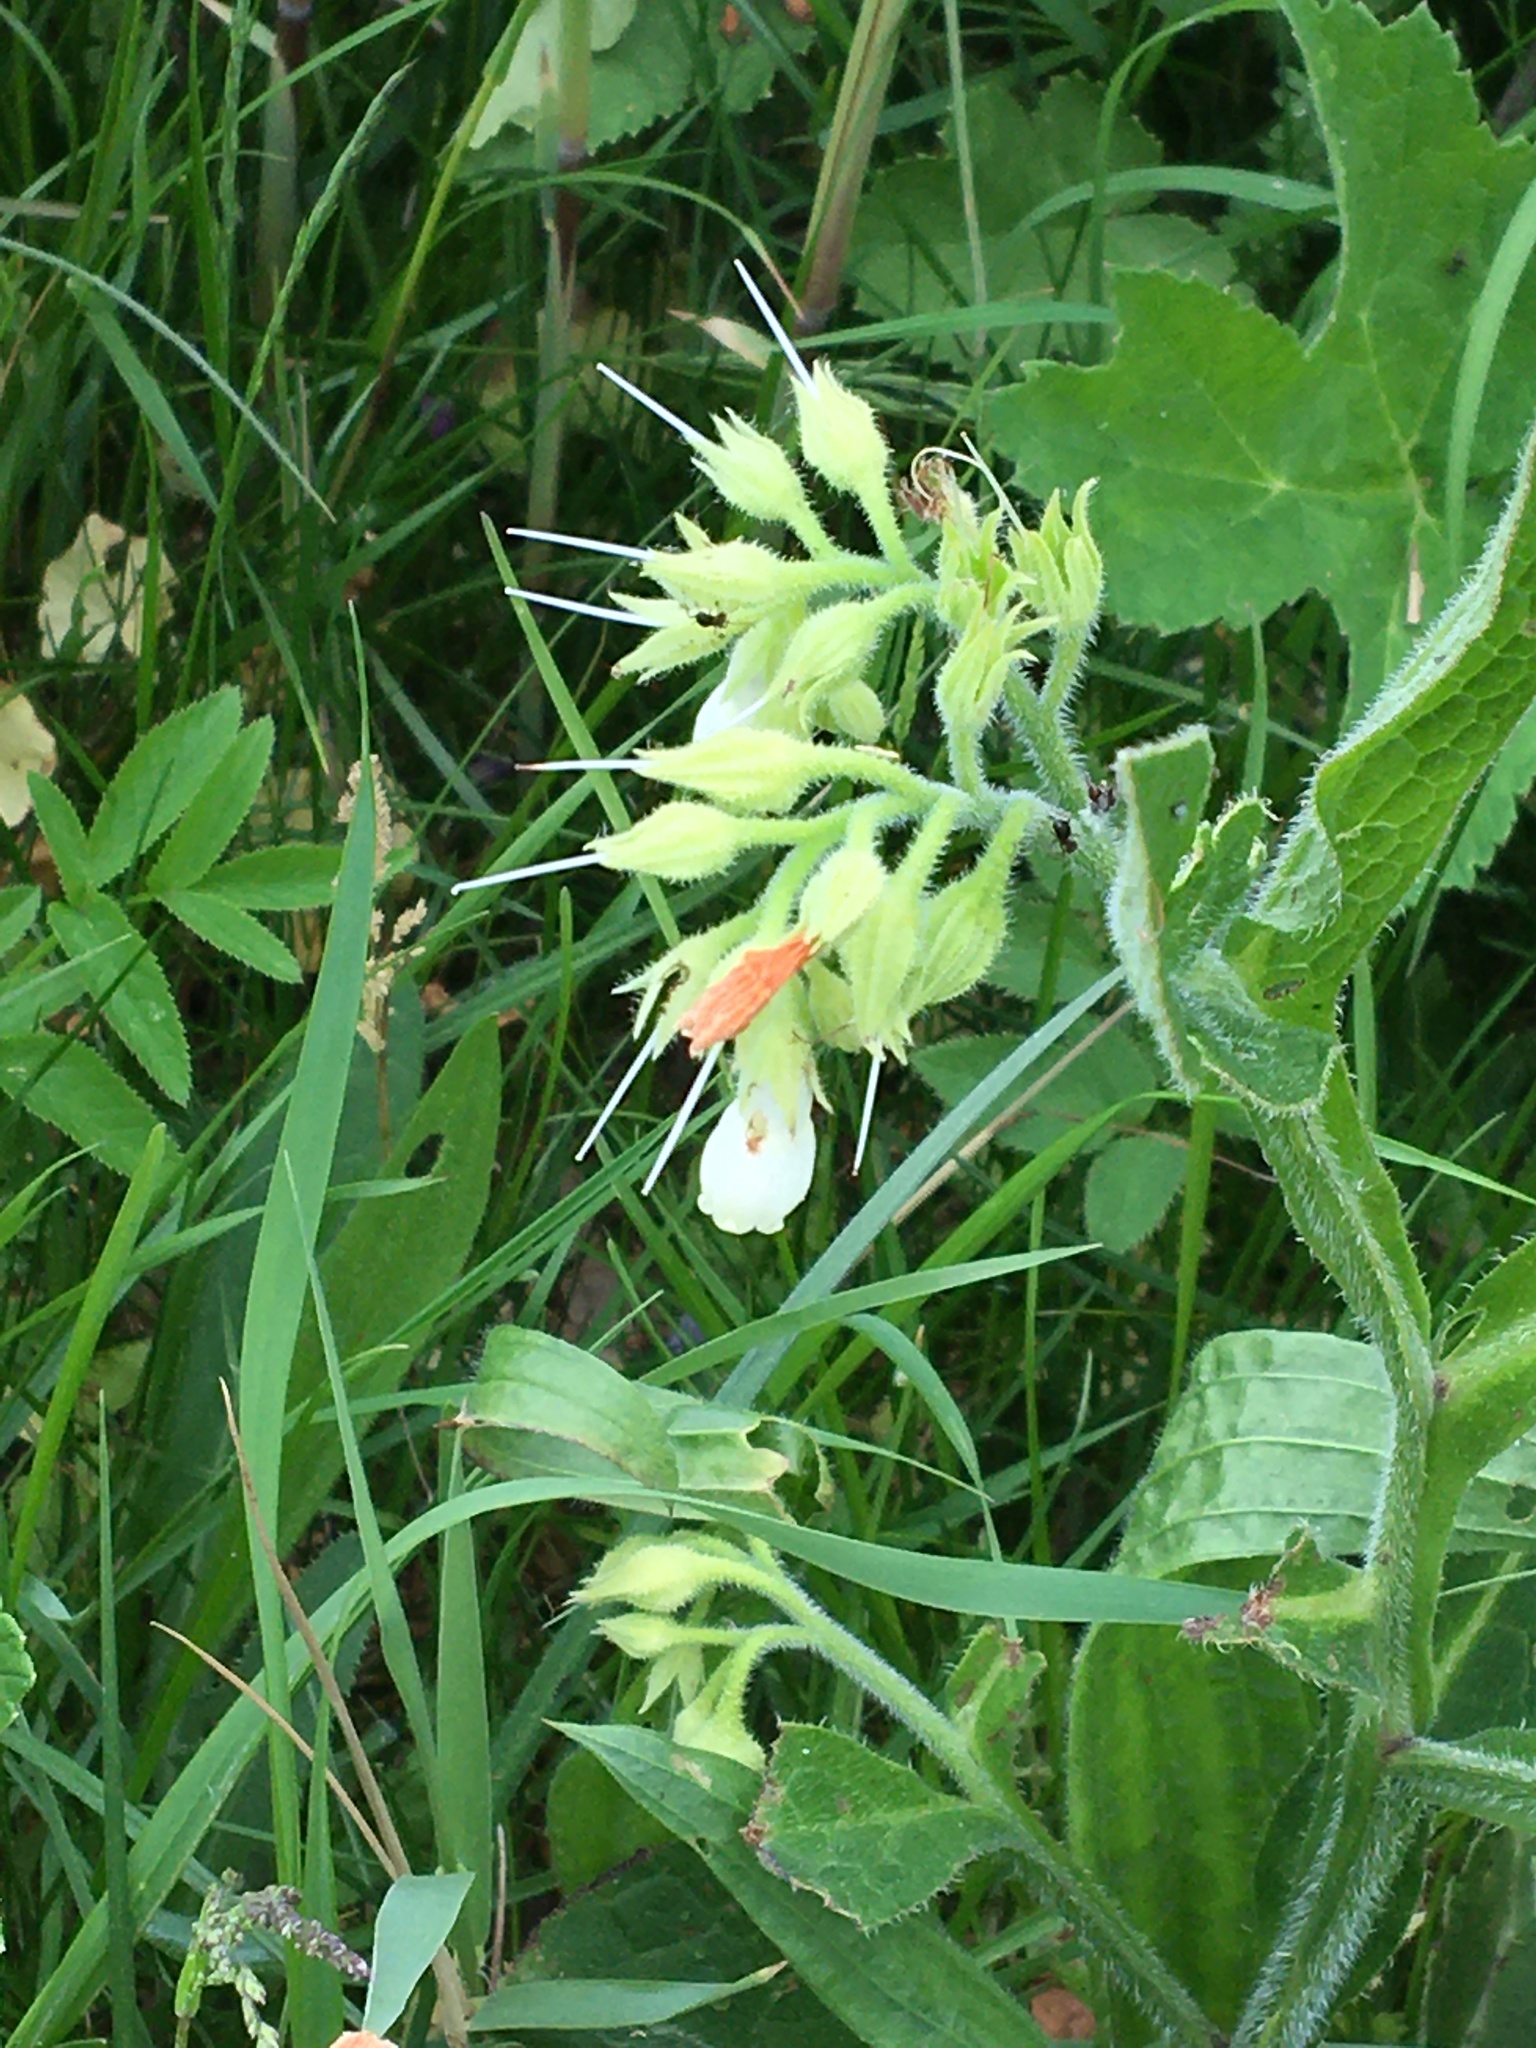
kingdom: Plantae
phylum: Tracheophyta
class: Magnoliopsida
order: Boraginales
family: Boraginaceae
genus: Symphytum
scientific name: Symphytum officinale
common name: Common comfrey
